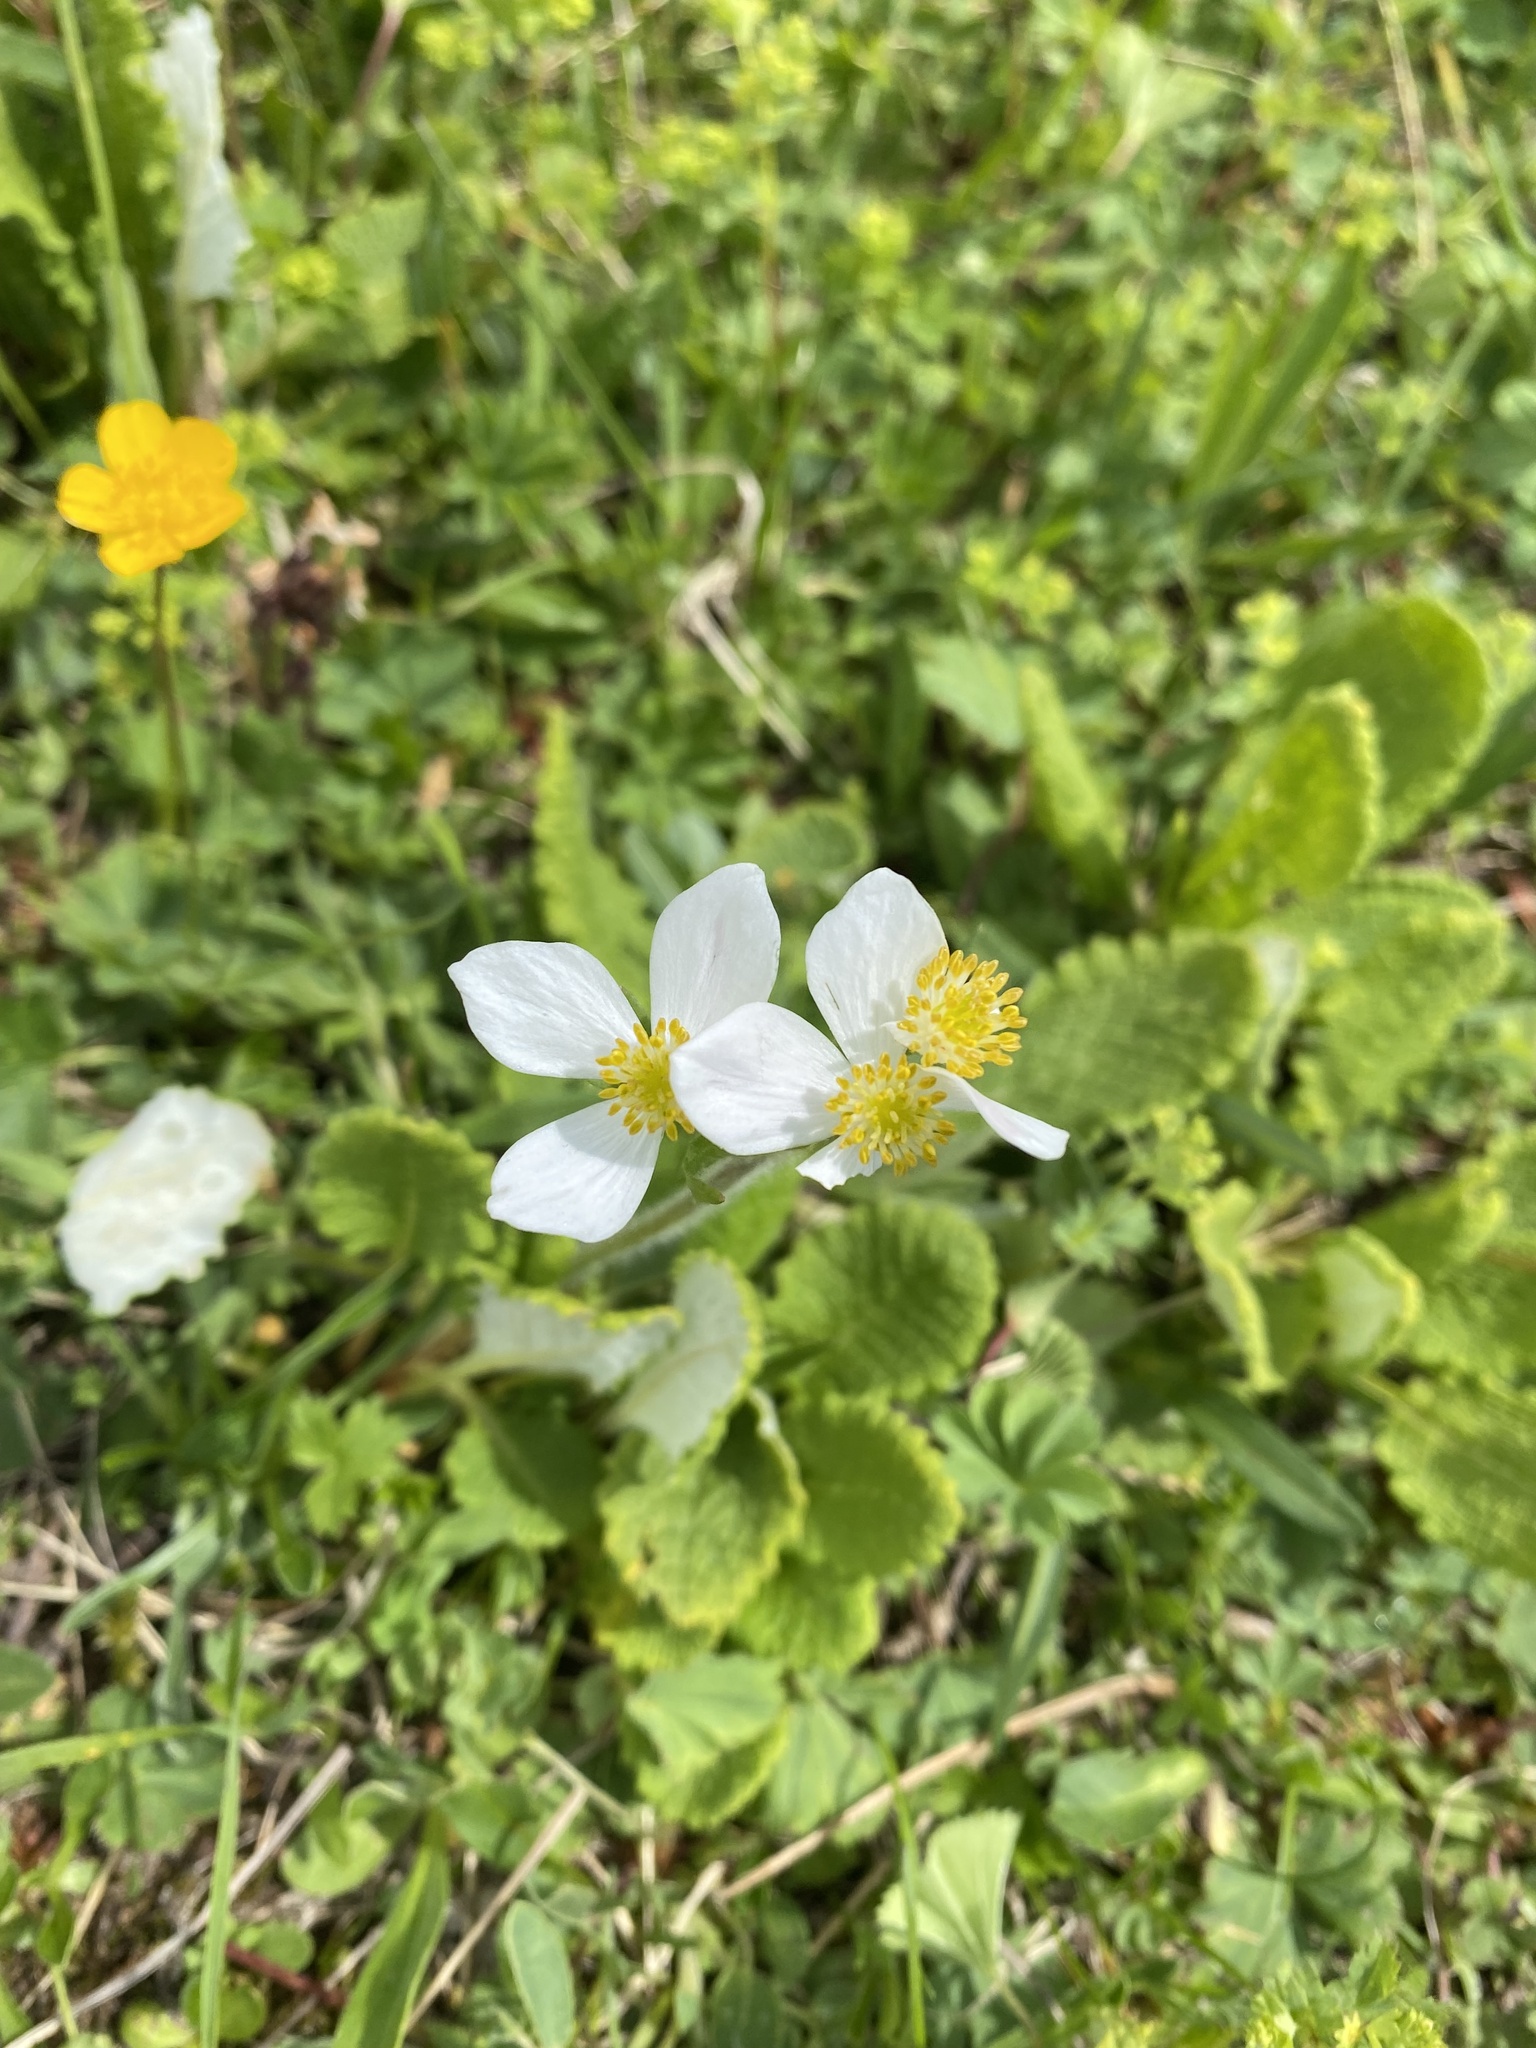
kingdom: Plantae
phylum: Tracheophyta
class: Magnoliopsida
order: Ranunculales
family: Ranunculaceae
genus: Anemonastrum
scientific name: Anemonastrum narcissiflorum
